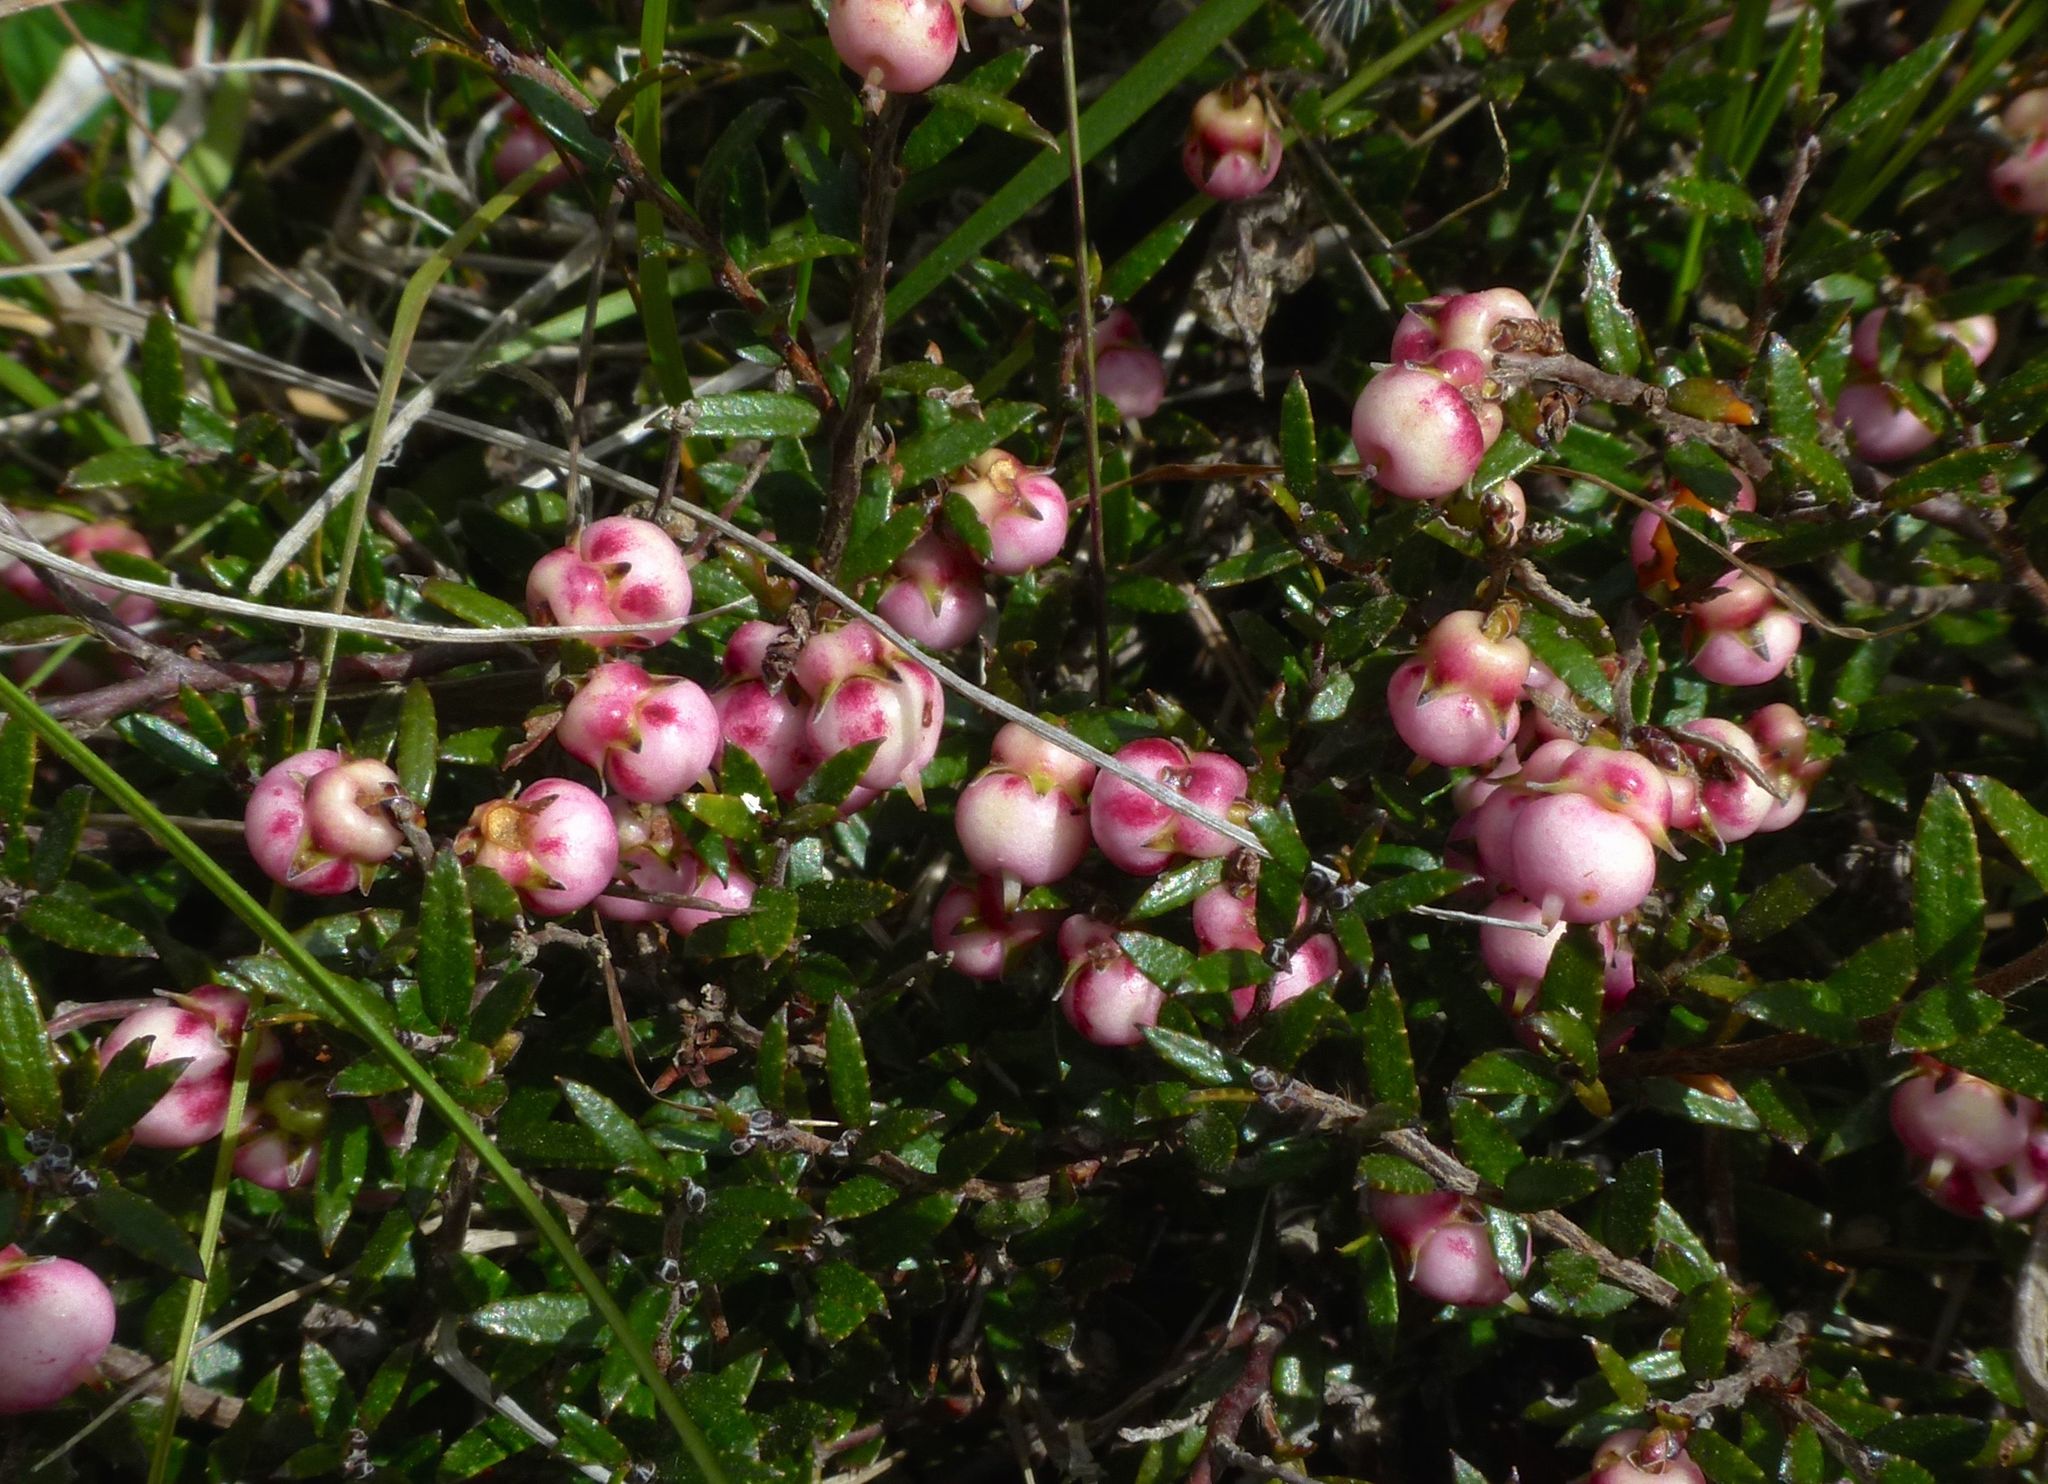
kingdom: Plantae
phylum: Tracheophyta
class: Magnoliopsida
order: Ericales
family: Ericaceae
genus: Gaultheria
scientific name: Gaultheria macrostigma
